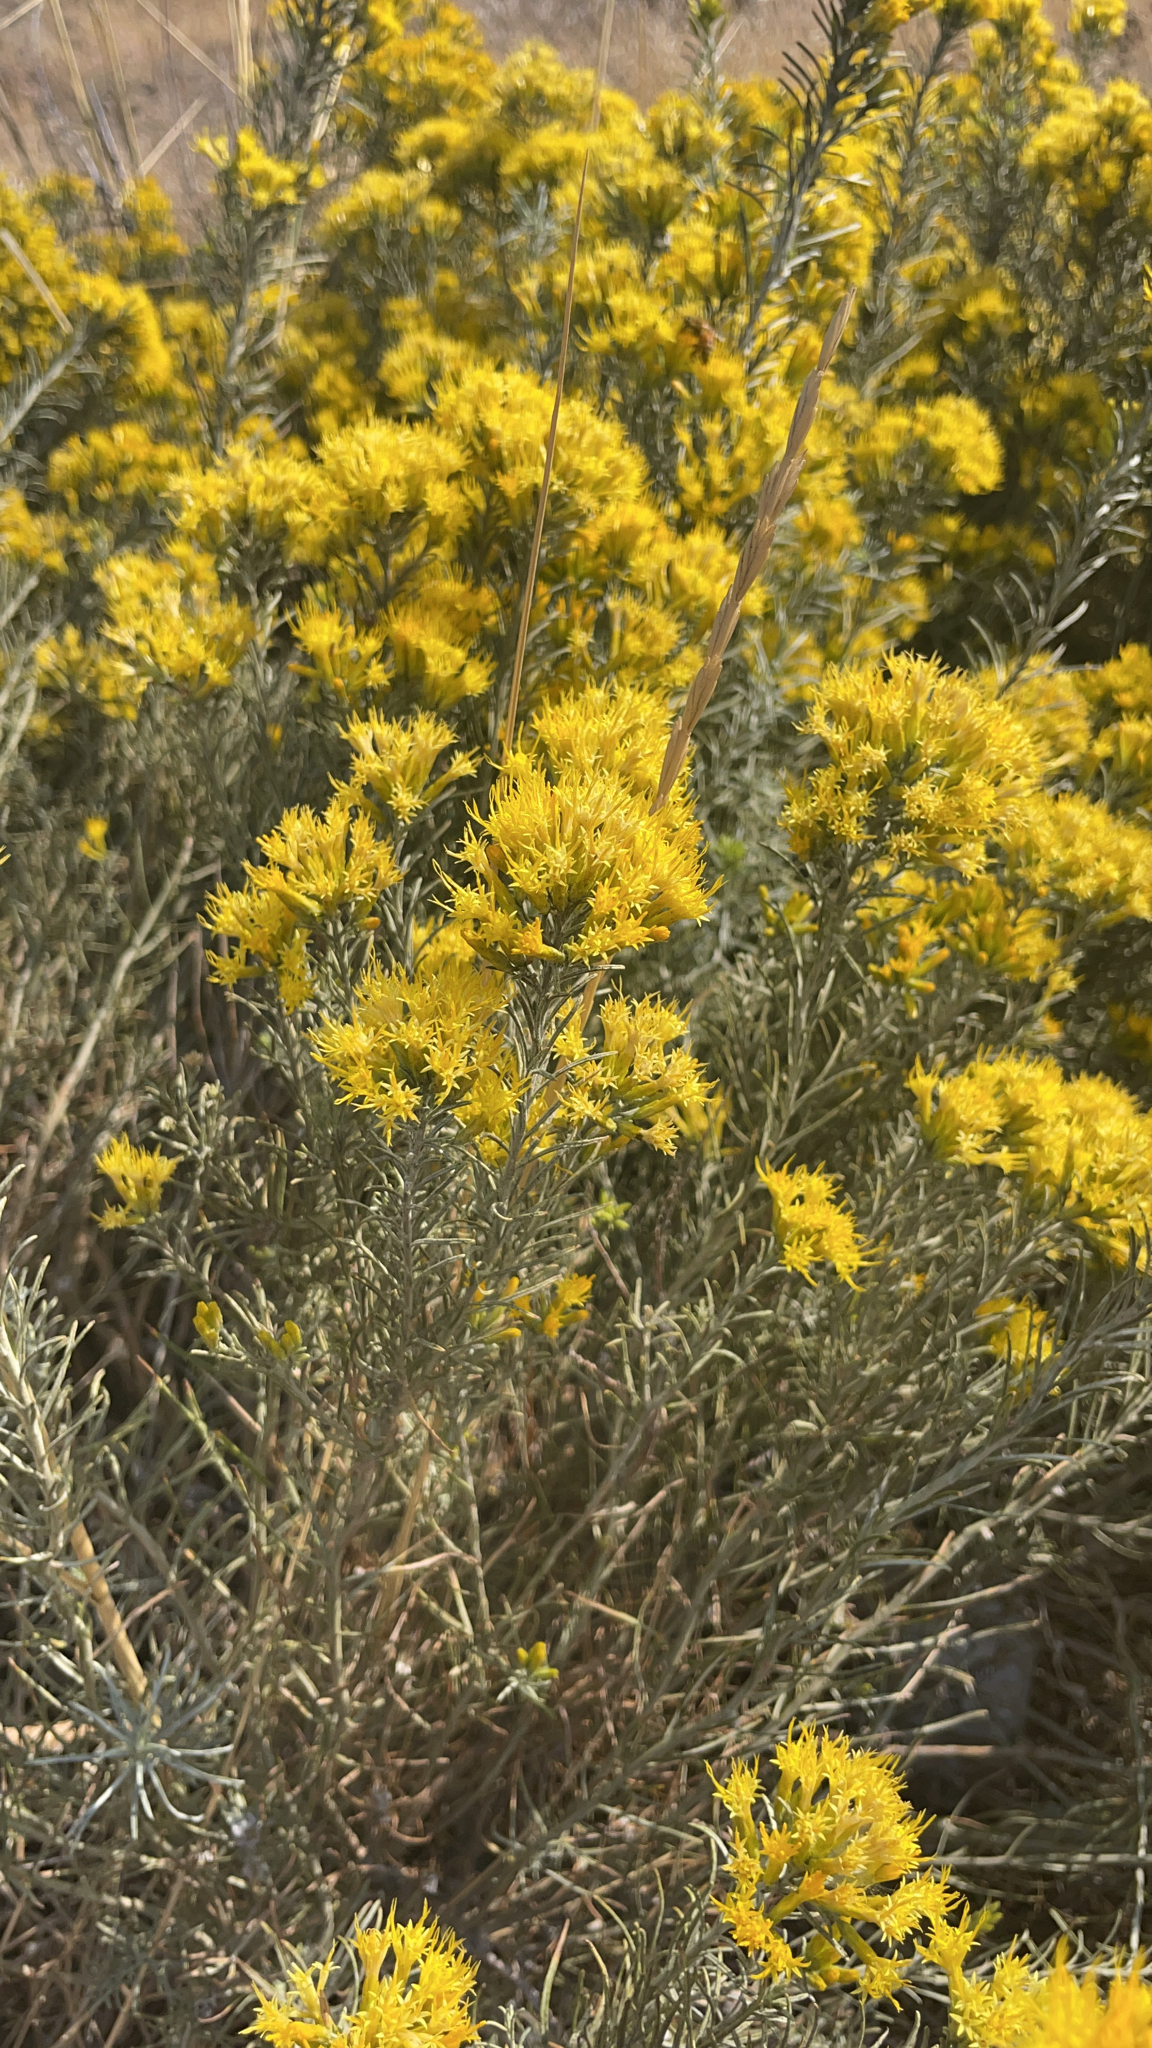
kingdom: Plantae
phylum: Tracheophyta
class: Magnoliopsida
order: Asterales
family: Asteraceae
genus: Ericameria
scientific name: Ericameria nauseosa
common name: Rubber rabbitbrush
